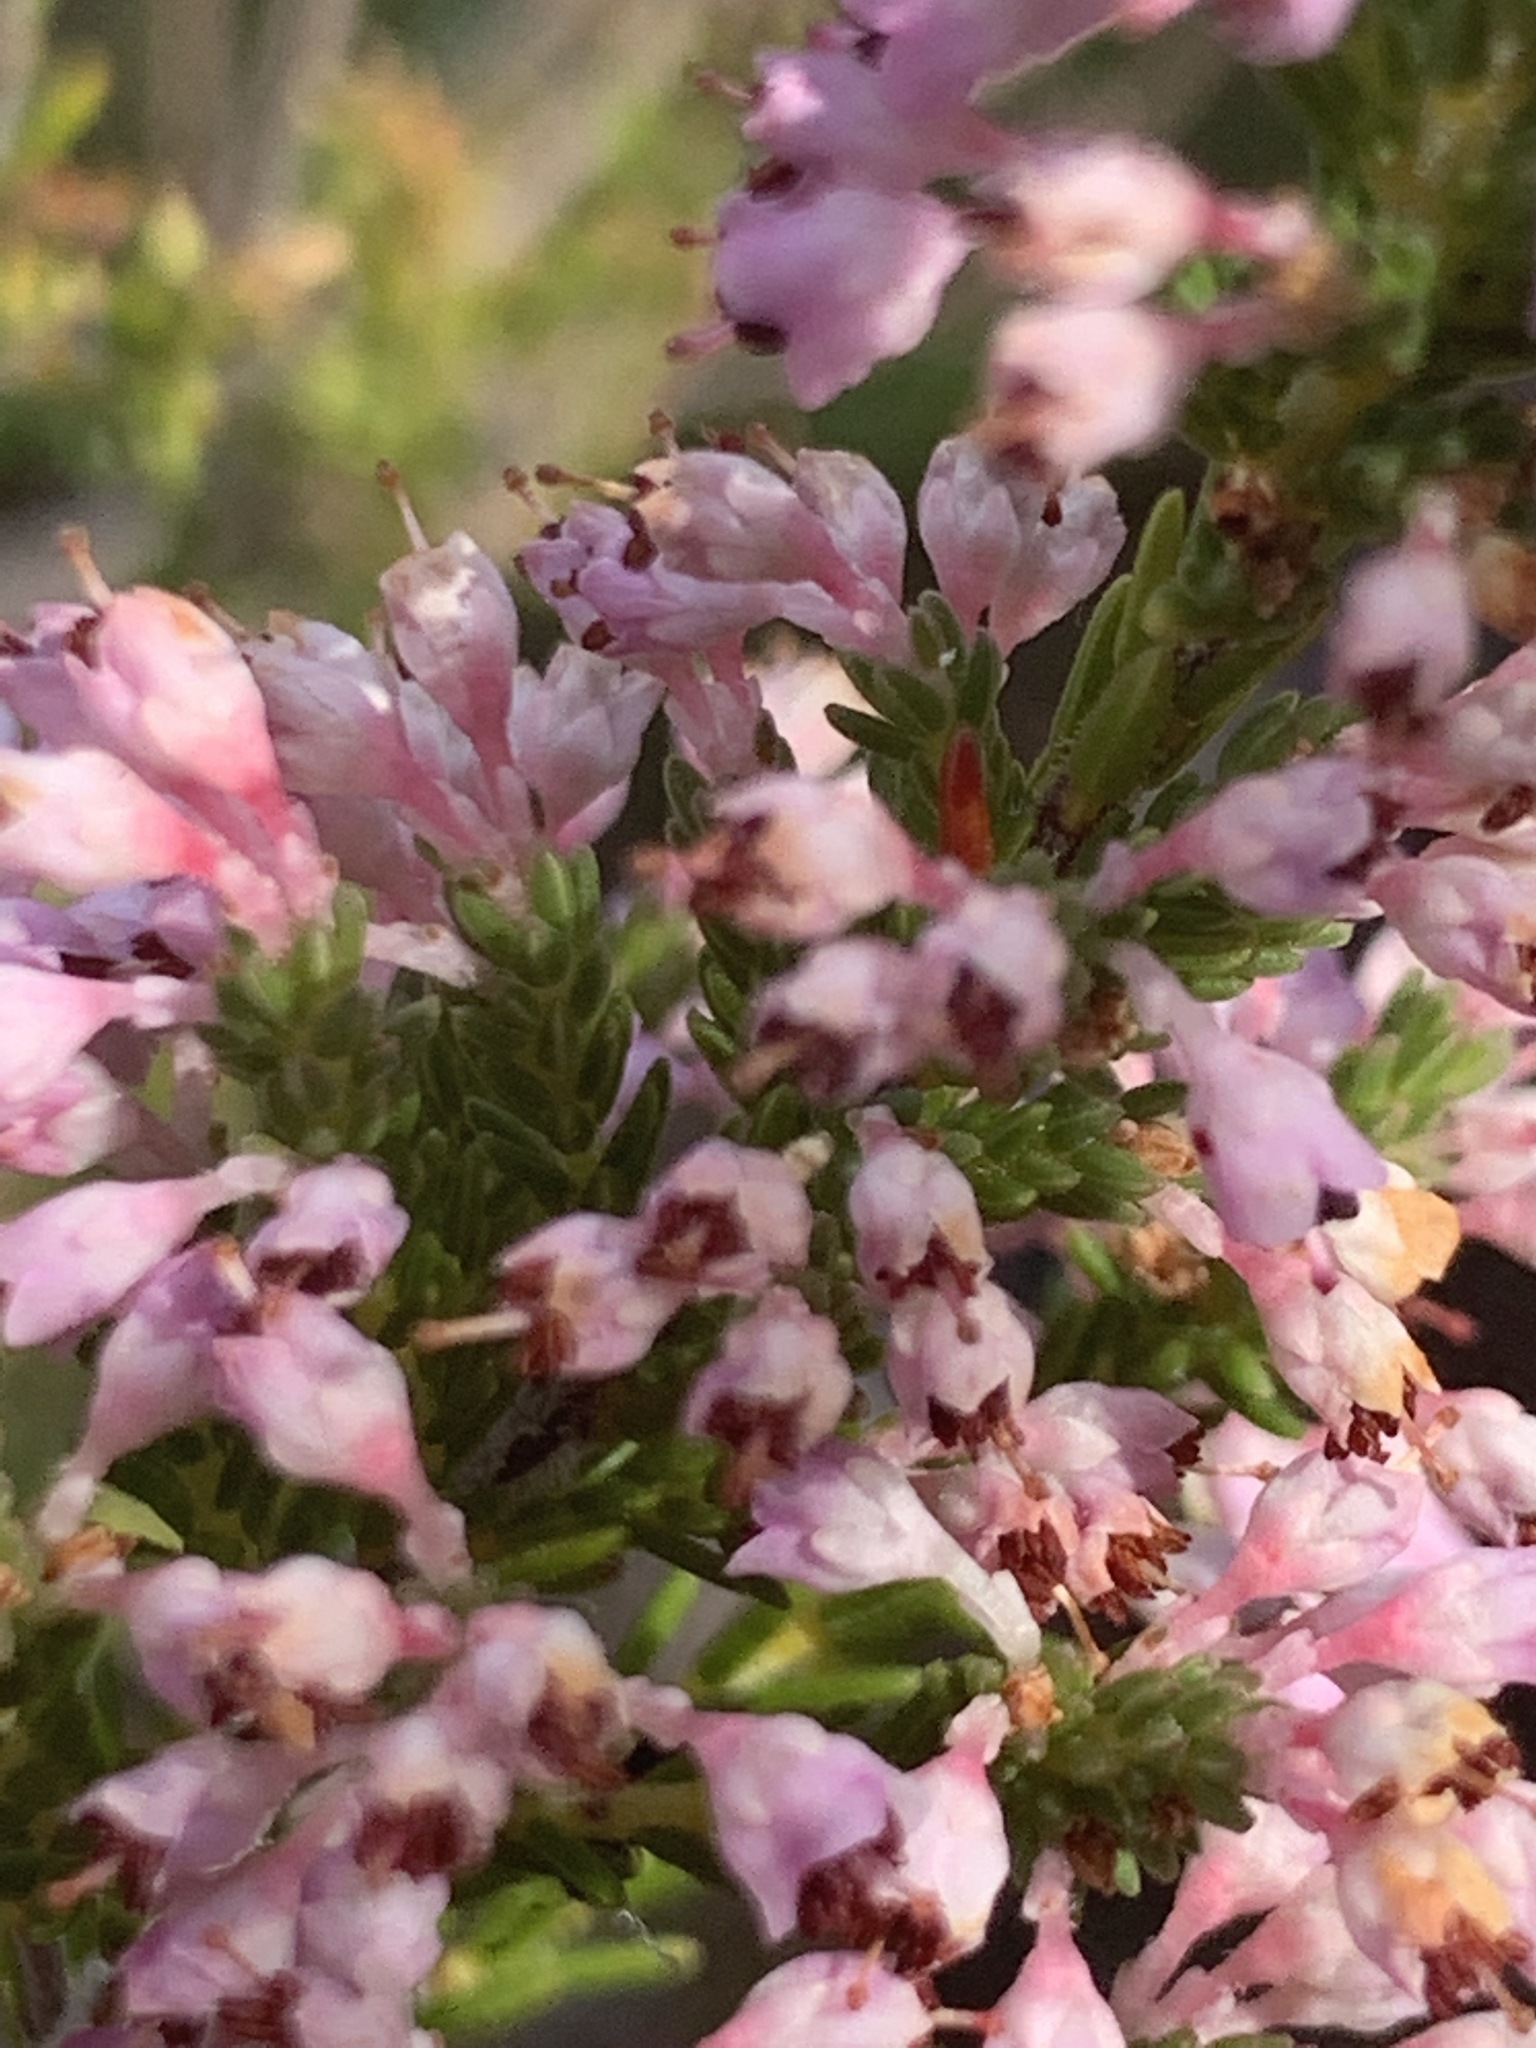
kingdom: Plantae
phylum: Tracheophyta
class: Magnoliopsida
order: Ericales
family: Ericaceae
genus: Erica
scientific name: Erica paniculata
